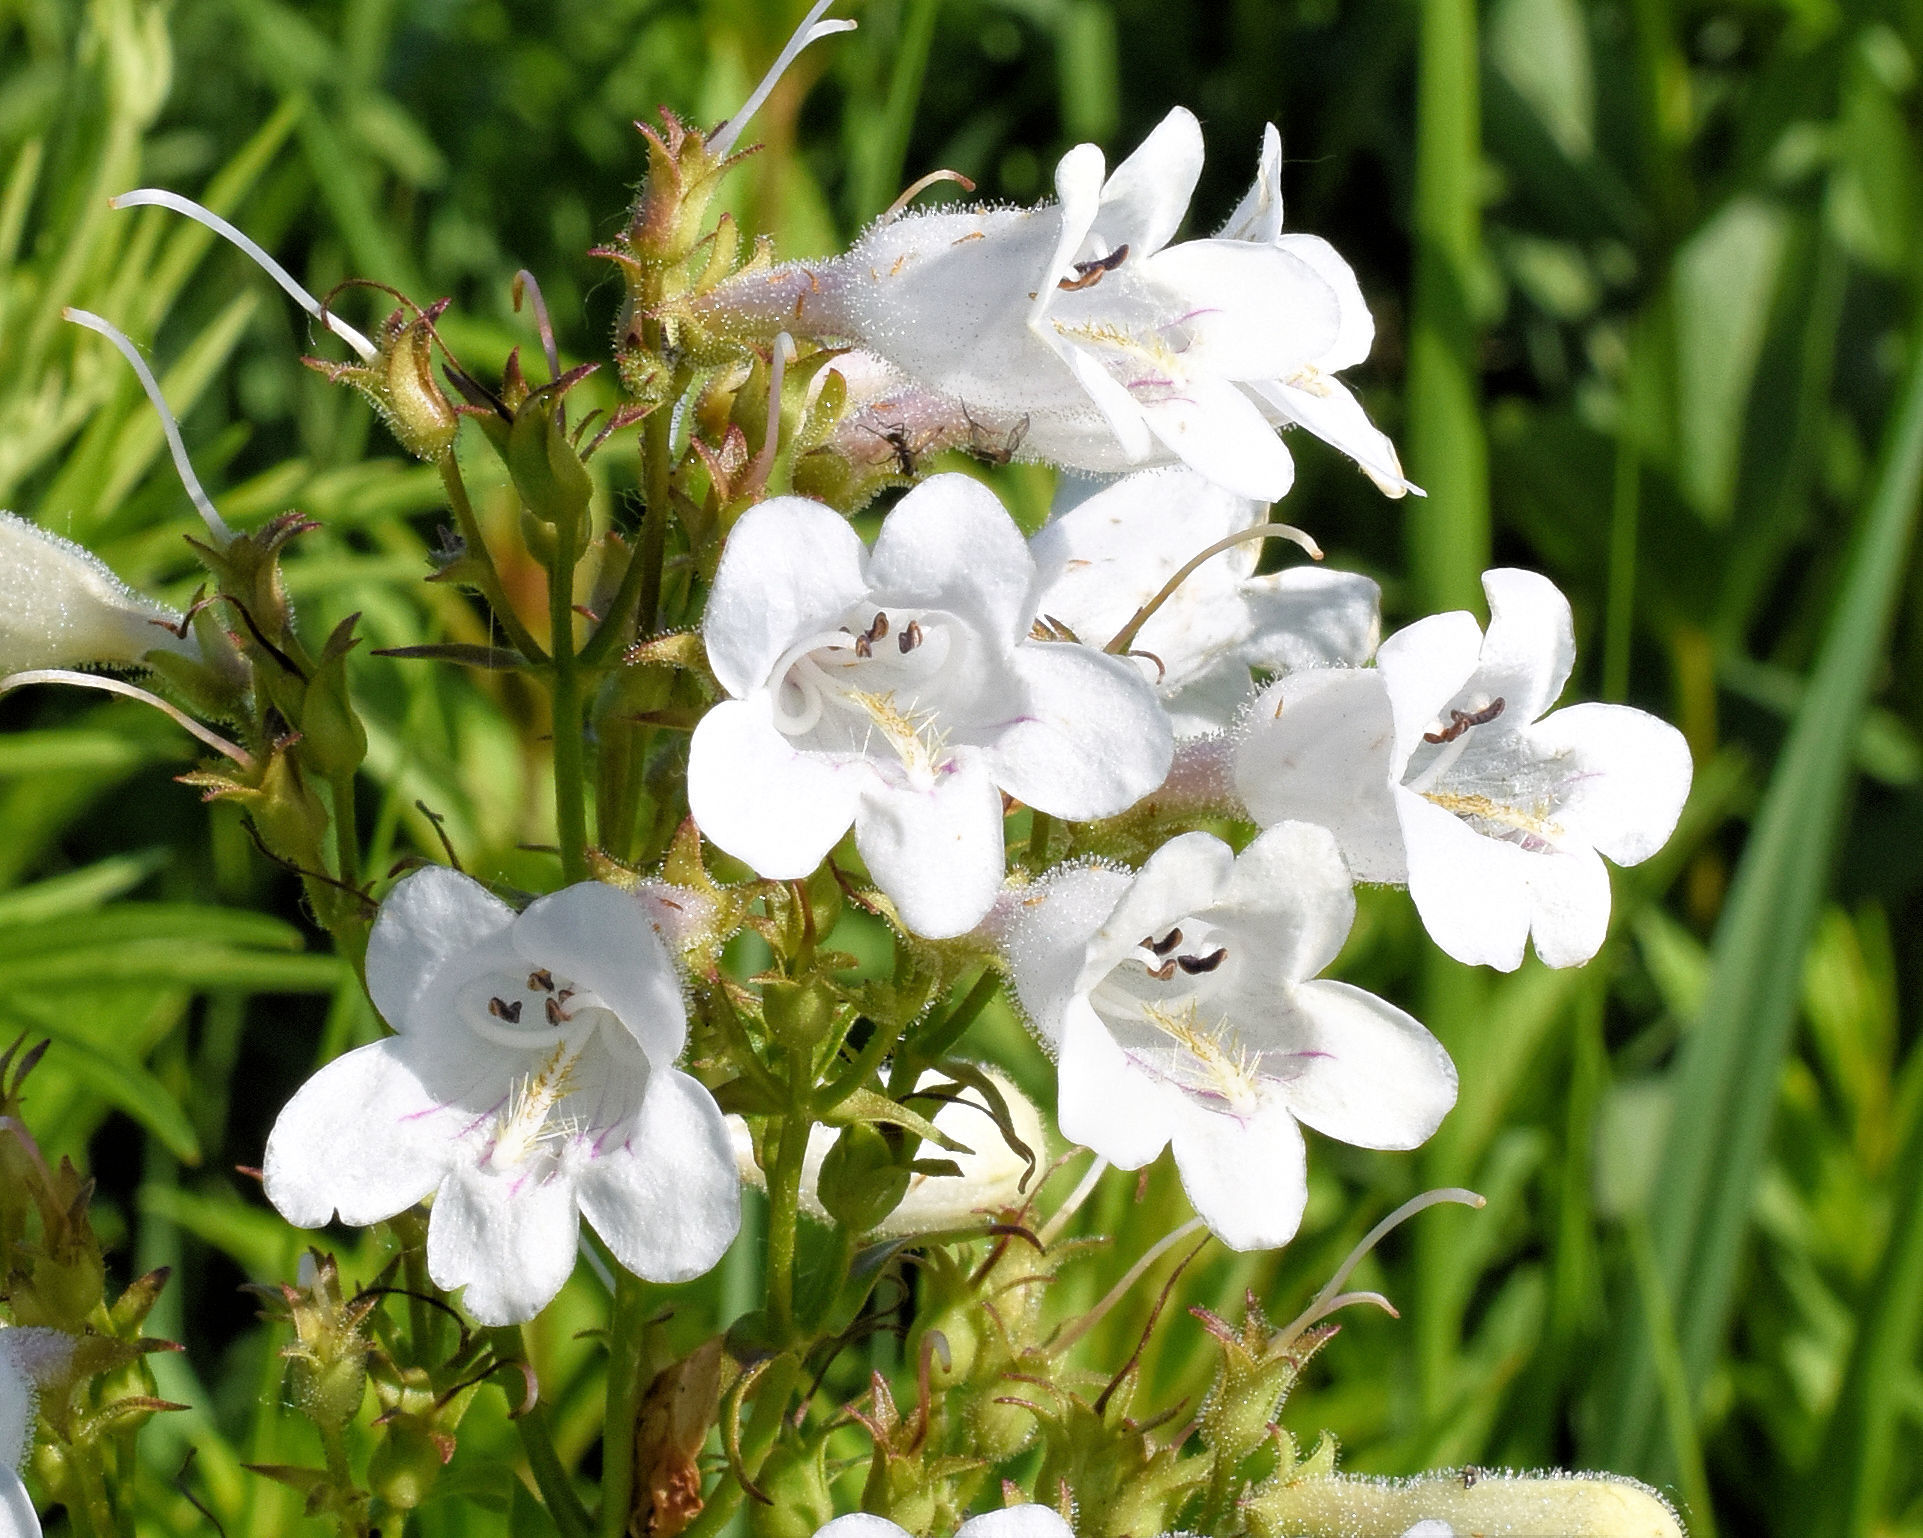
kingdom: Plantae
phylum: Tracheophyta
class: Magnoliopsida
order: Lamiales
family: Plantaginaceae
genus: Penstemon
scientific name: Penstemon digitalis
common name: Foxglove beardtongue
